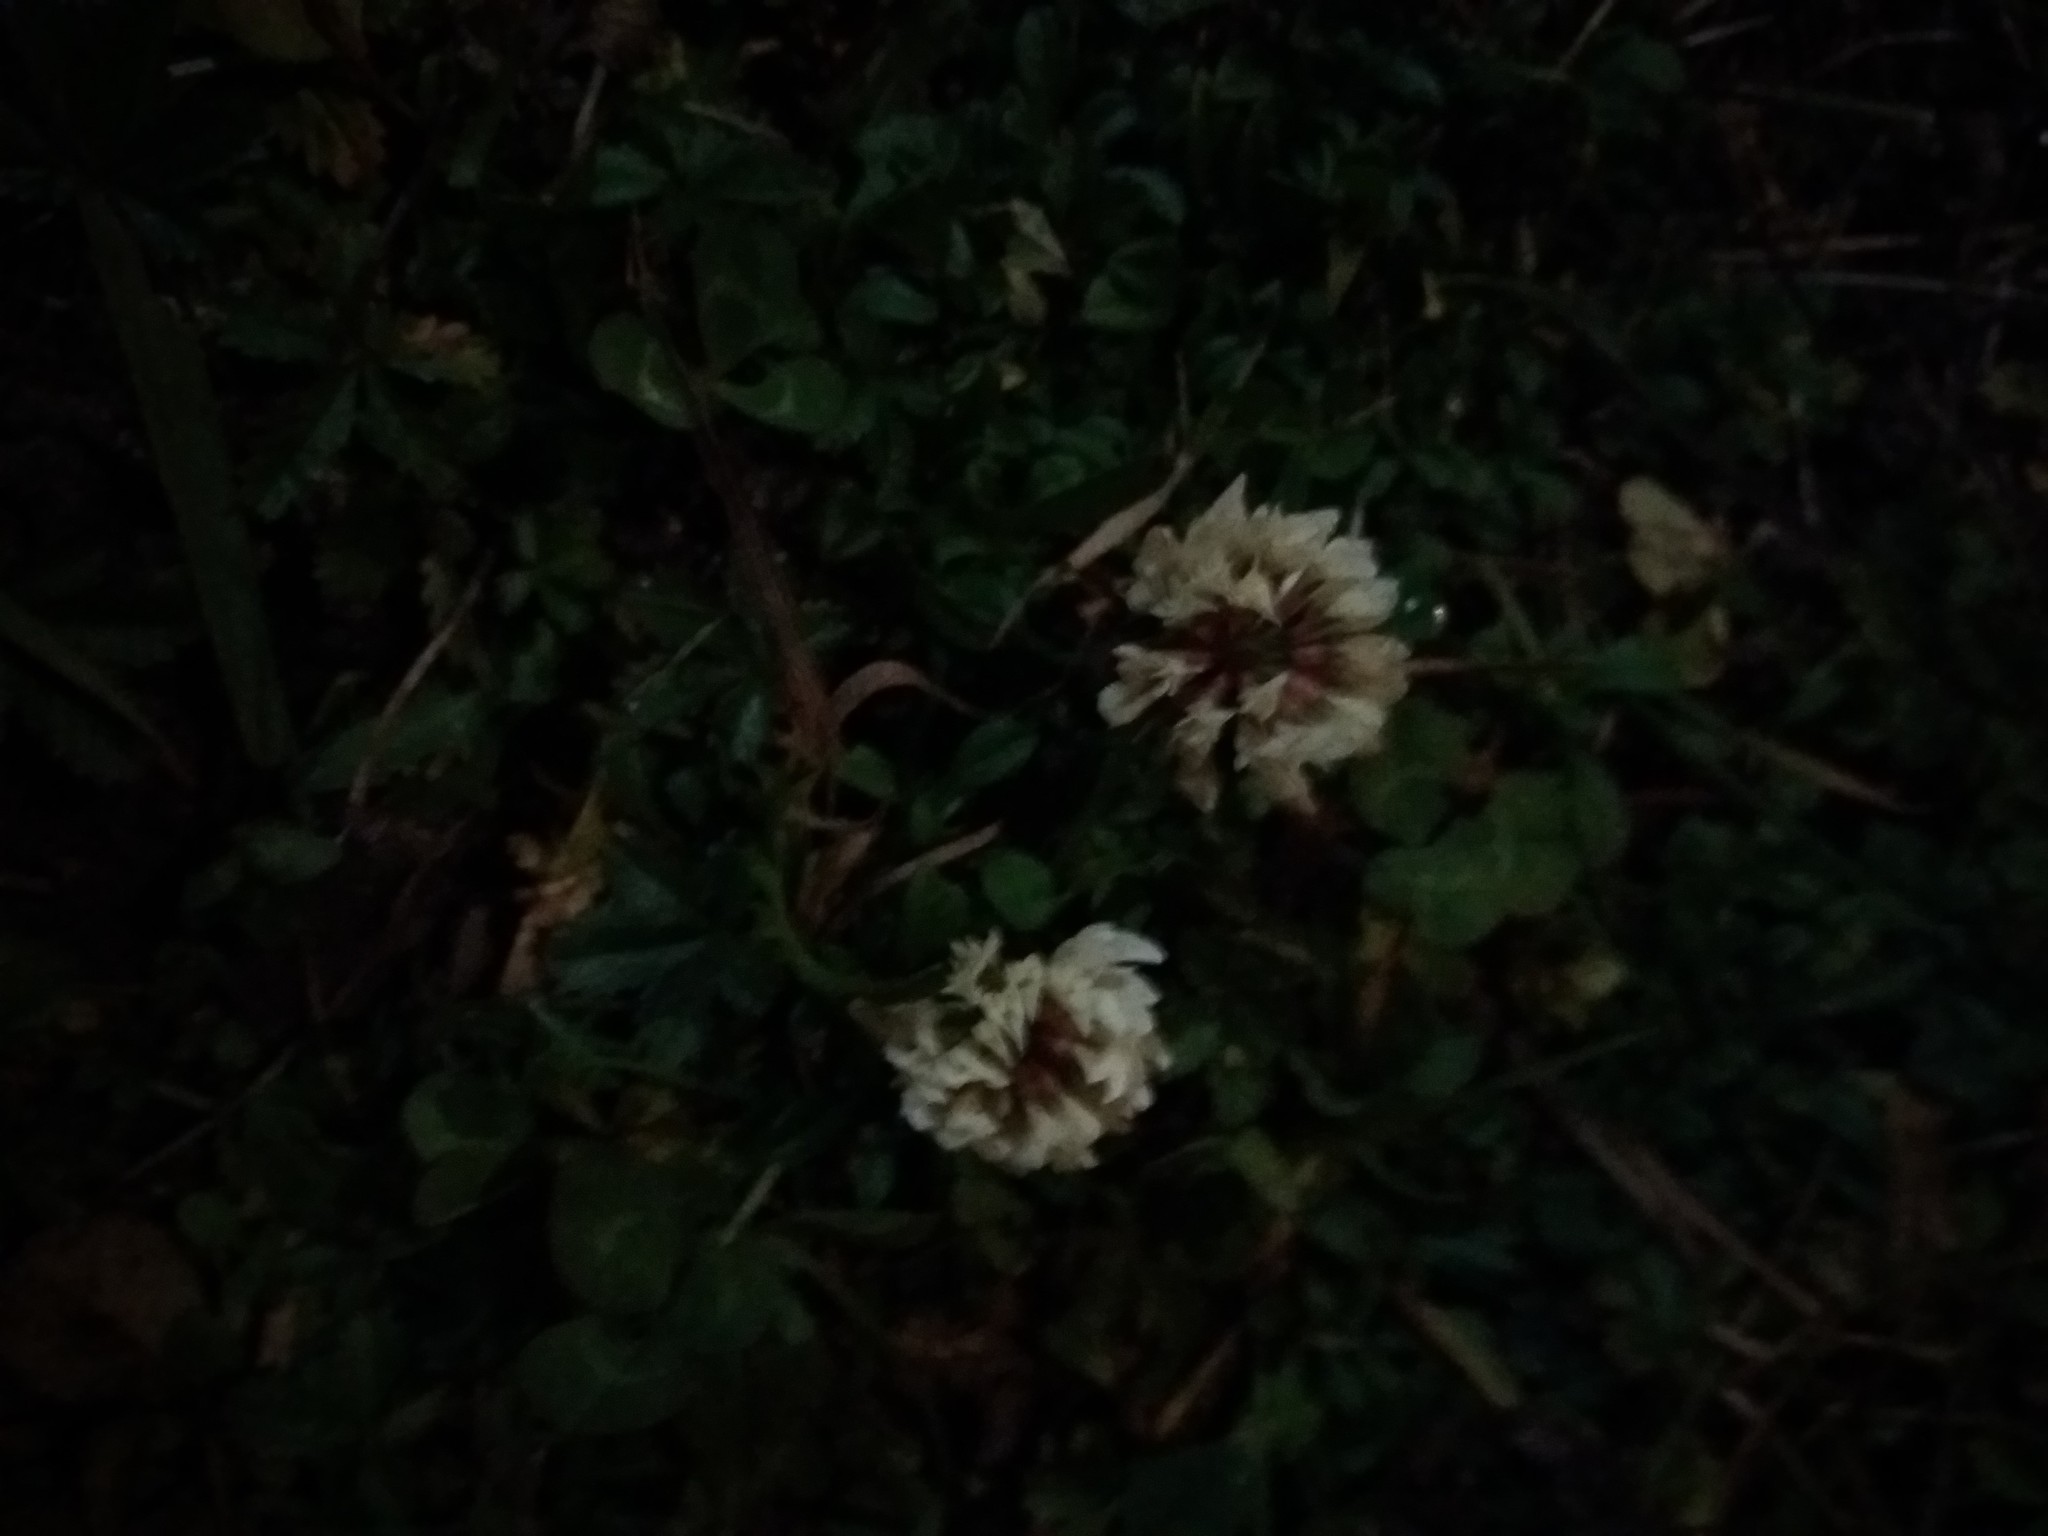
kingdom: Plantae
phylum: Tracheophyta
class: Magnoliopsida
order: Fabales
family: Fabaceae
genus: Trifolium
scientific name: Trifolium repens
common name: White clover
